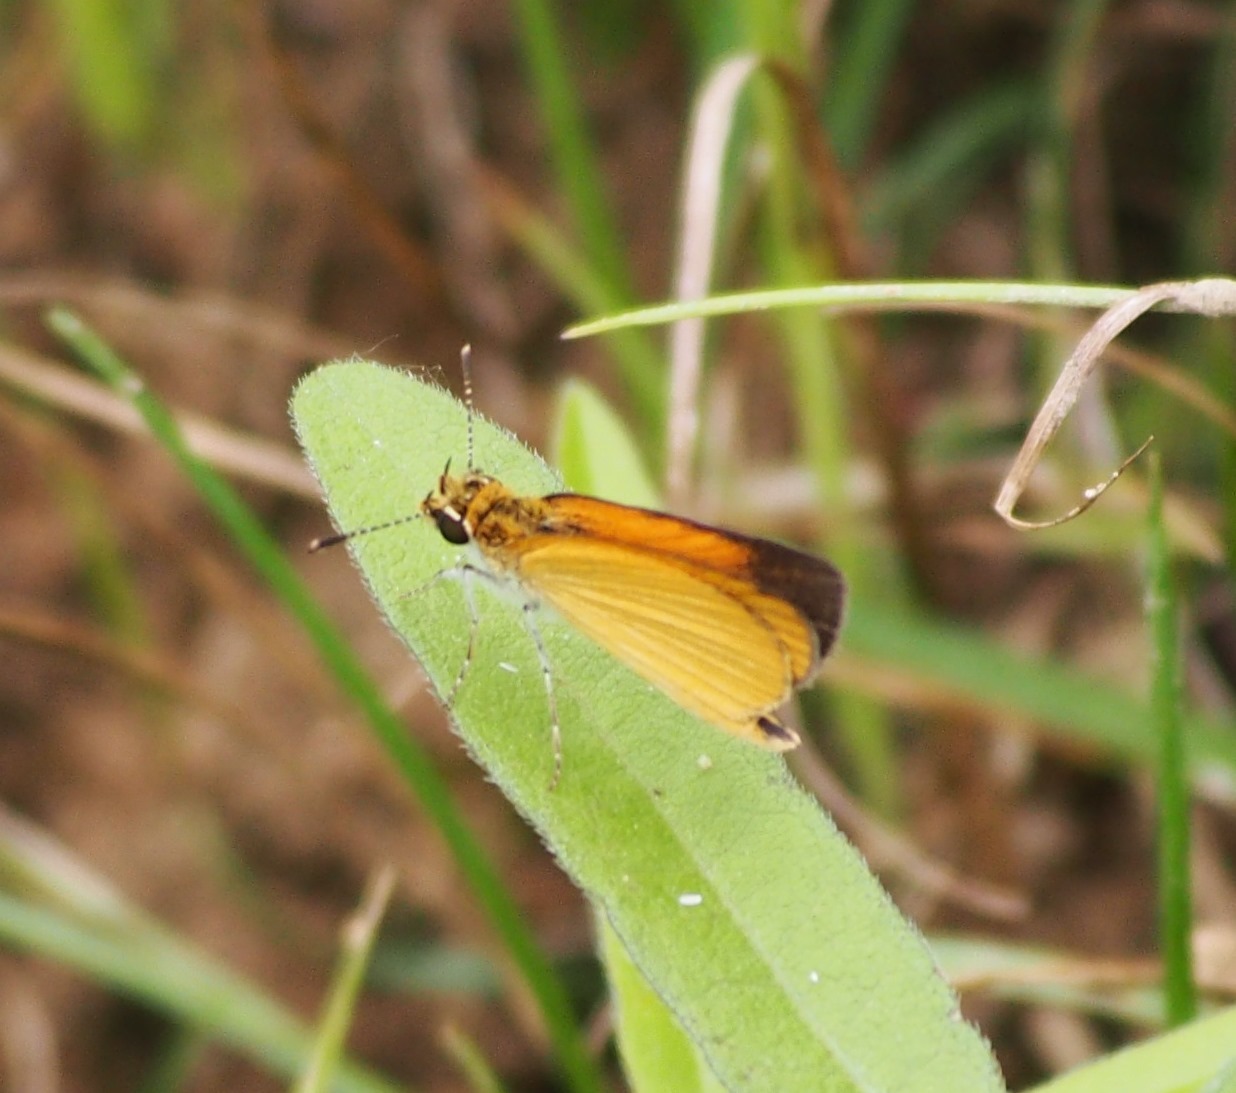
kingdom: Animalia
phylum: Arthropoda
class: Insecta
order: Lepidoptera
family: Hesperiidae
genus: Ancyloxypha
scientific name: Ancyloxypha numitor
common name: Least skipper
